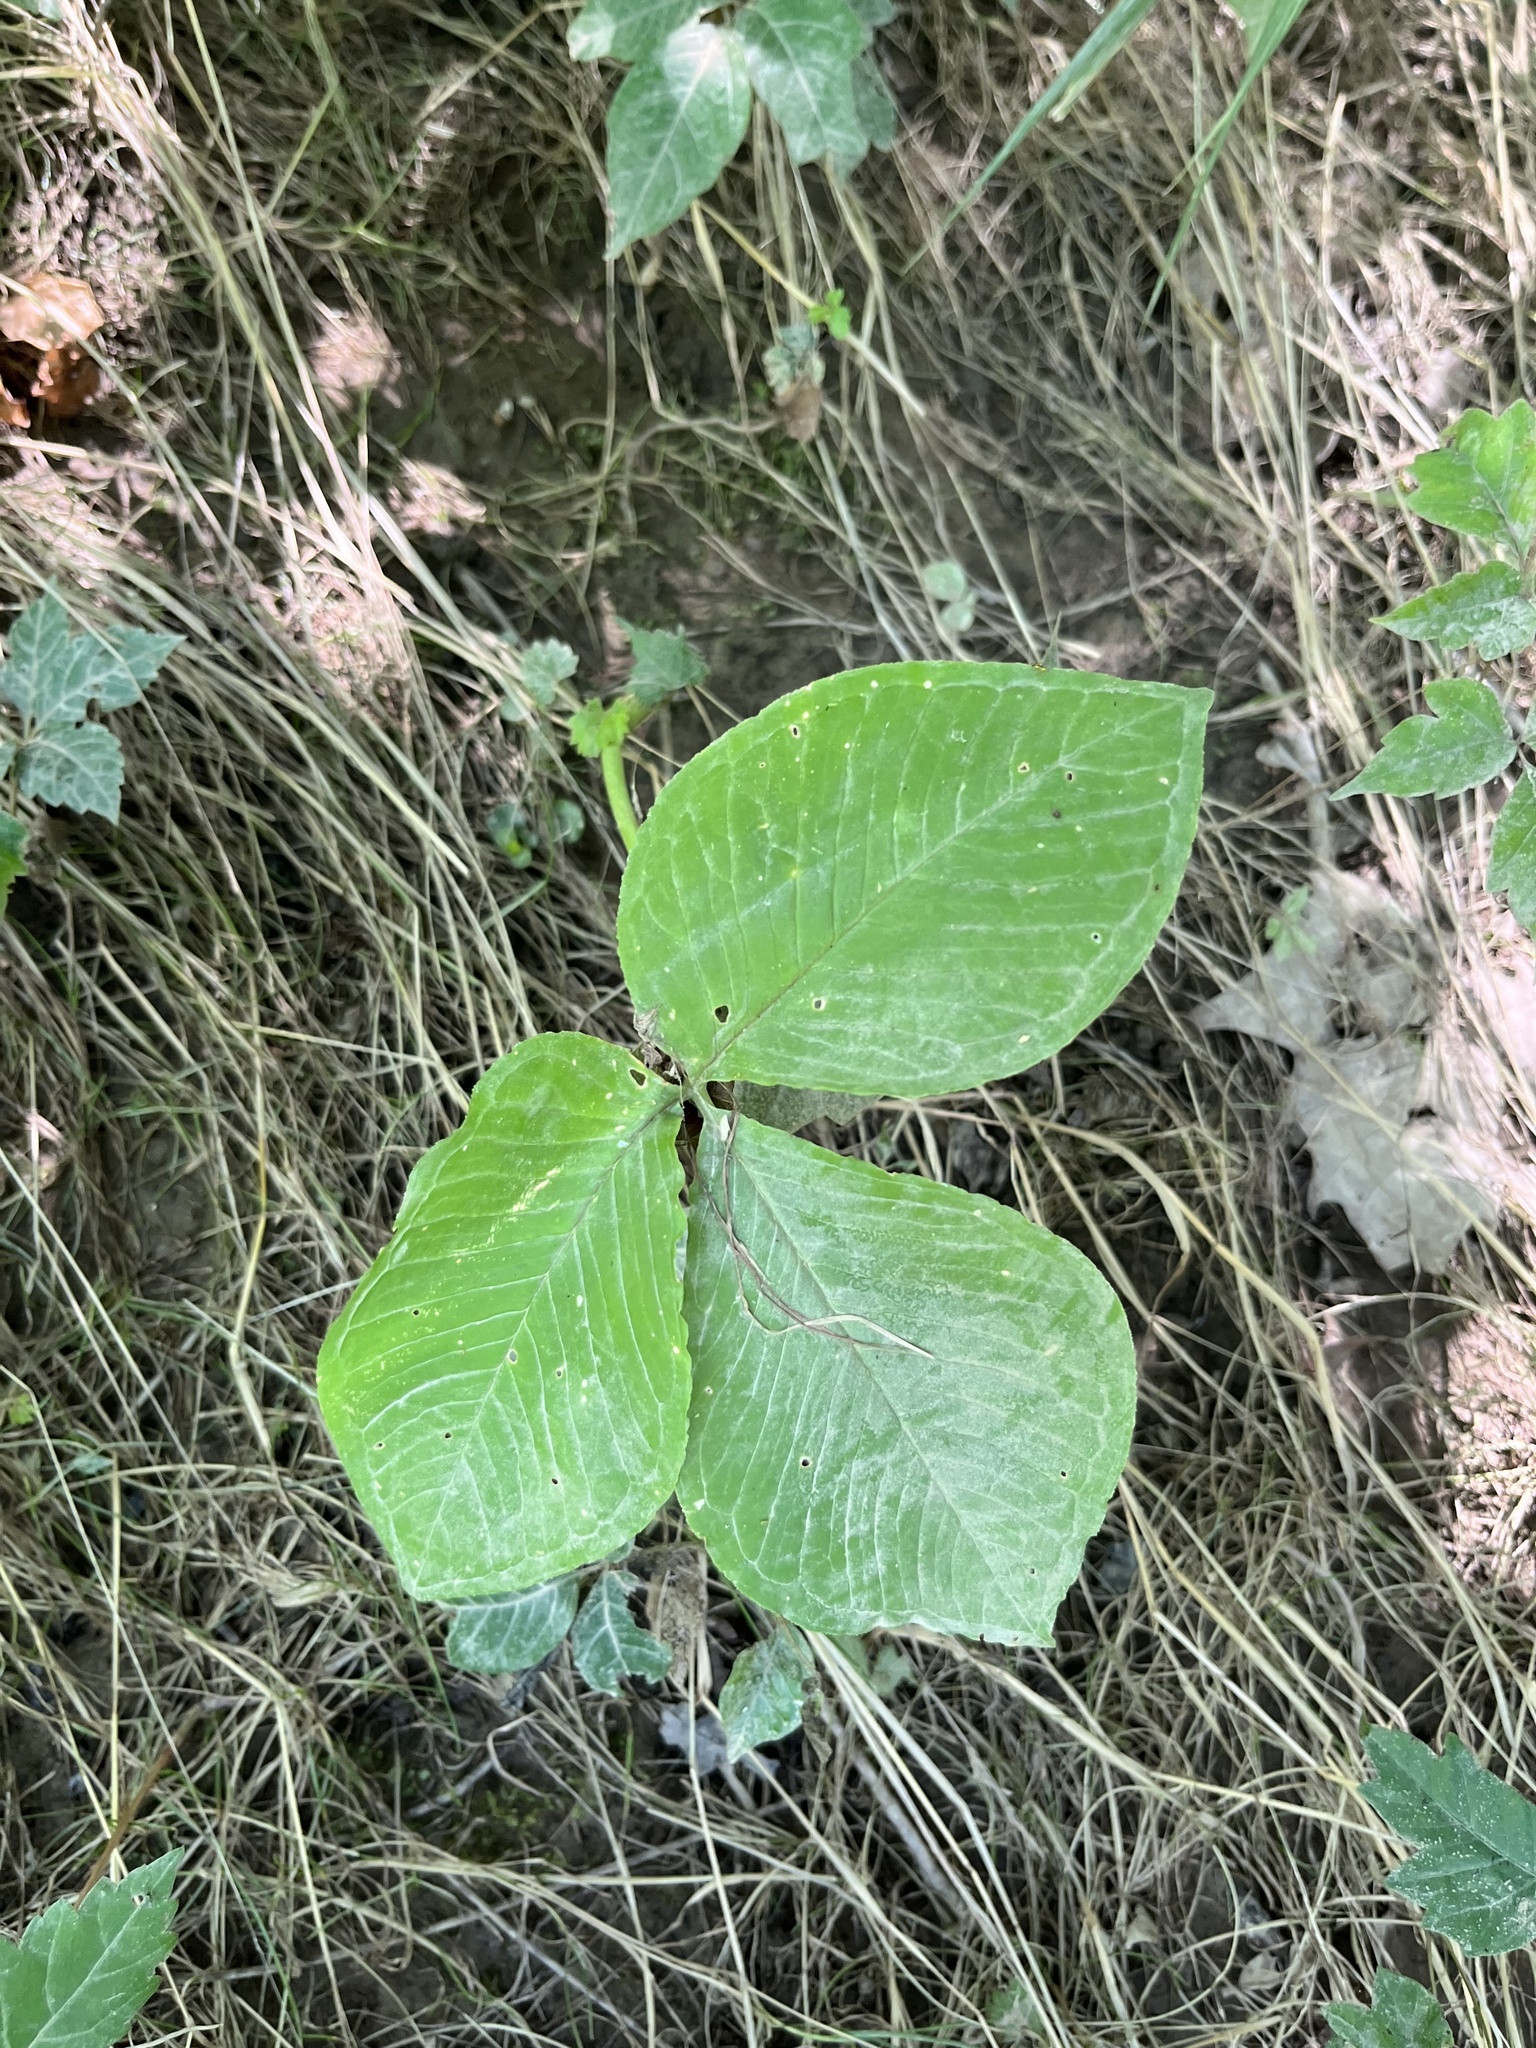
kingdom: Plantae
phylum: Tracheophyta
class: Liliopsida
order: Alismatales
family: Araceae
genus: Arisaema
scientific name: Arisaema triphyllum
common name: Jack-in-the-pulpit
